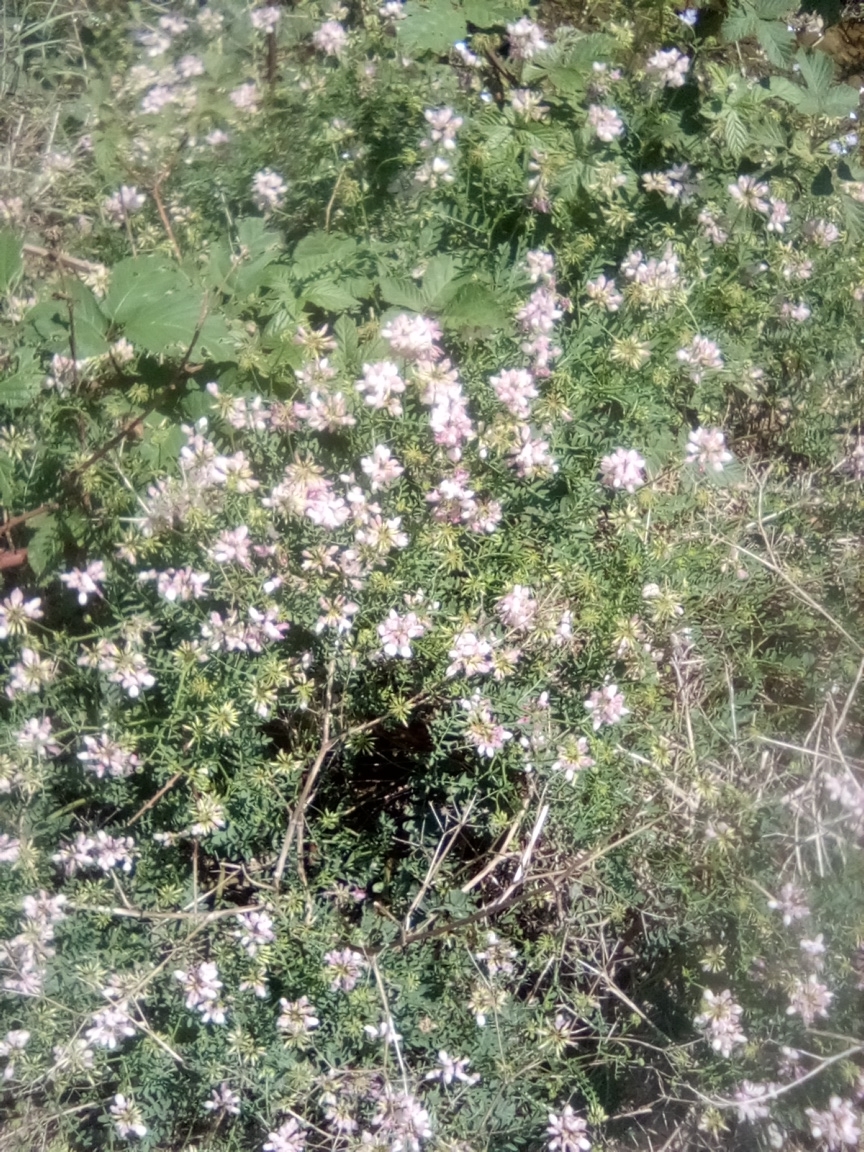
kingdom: Plantae
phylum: Tracheophyta
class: Magnoliopsida
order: Fabales
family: Fabaceae
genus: Coronilla
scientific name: Coronilla varia
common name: Crownvetch
